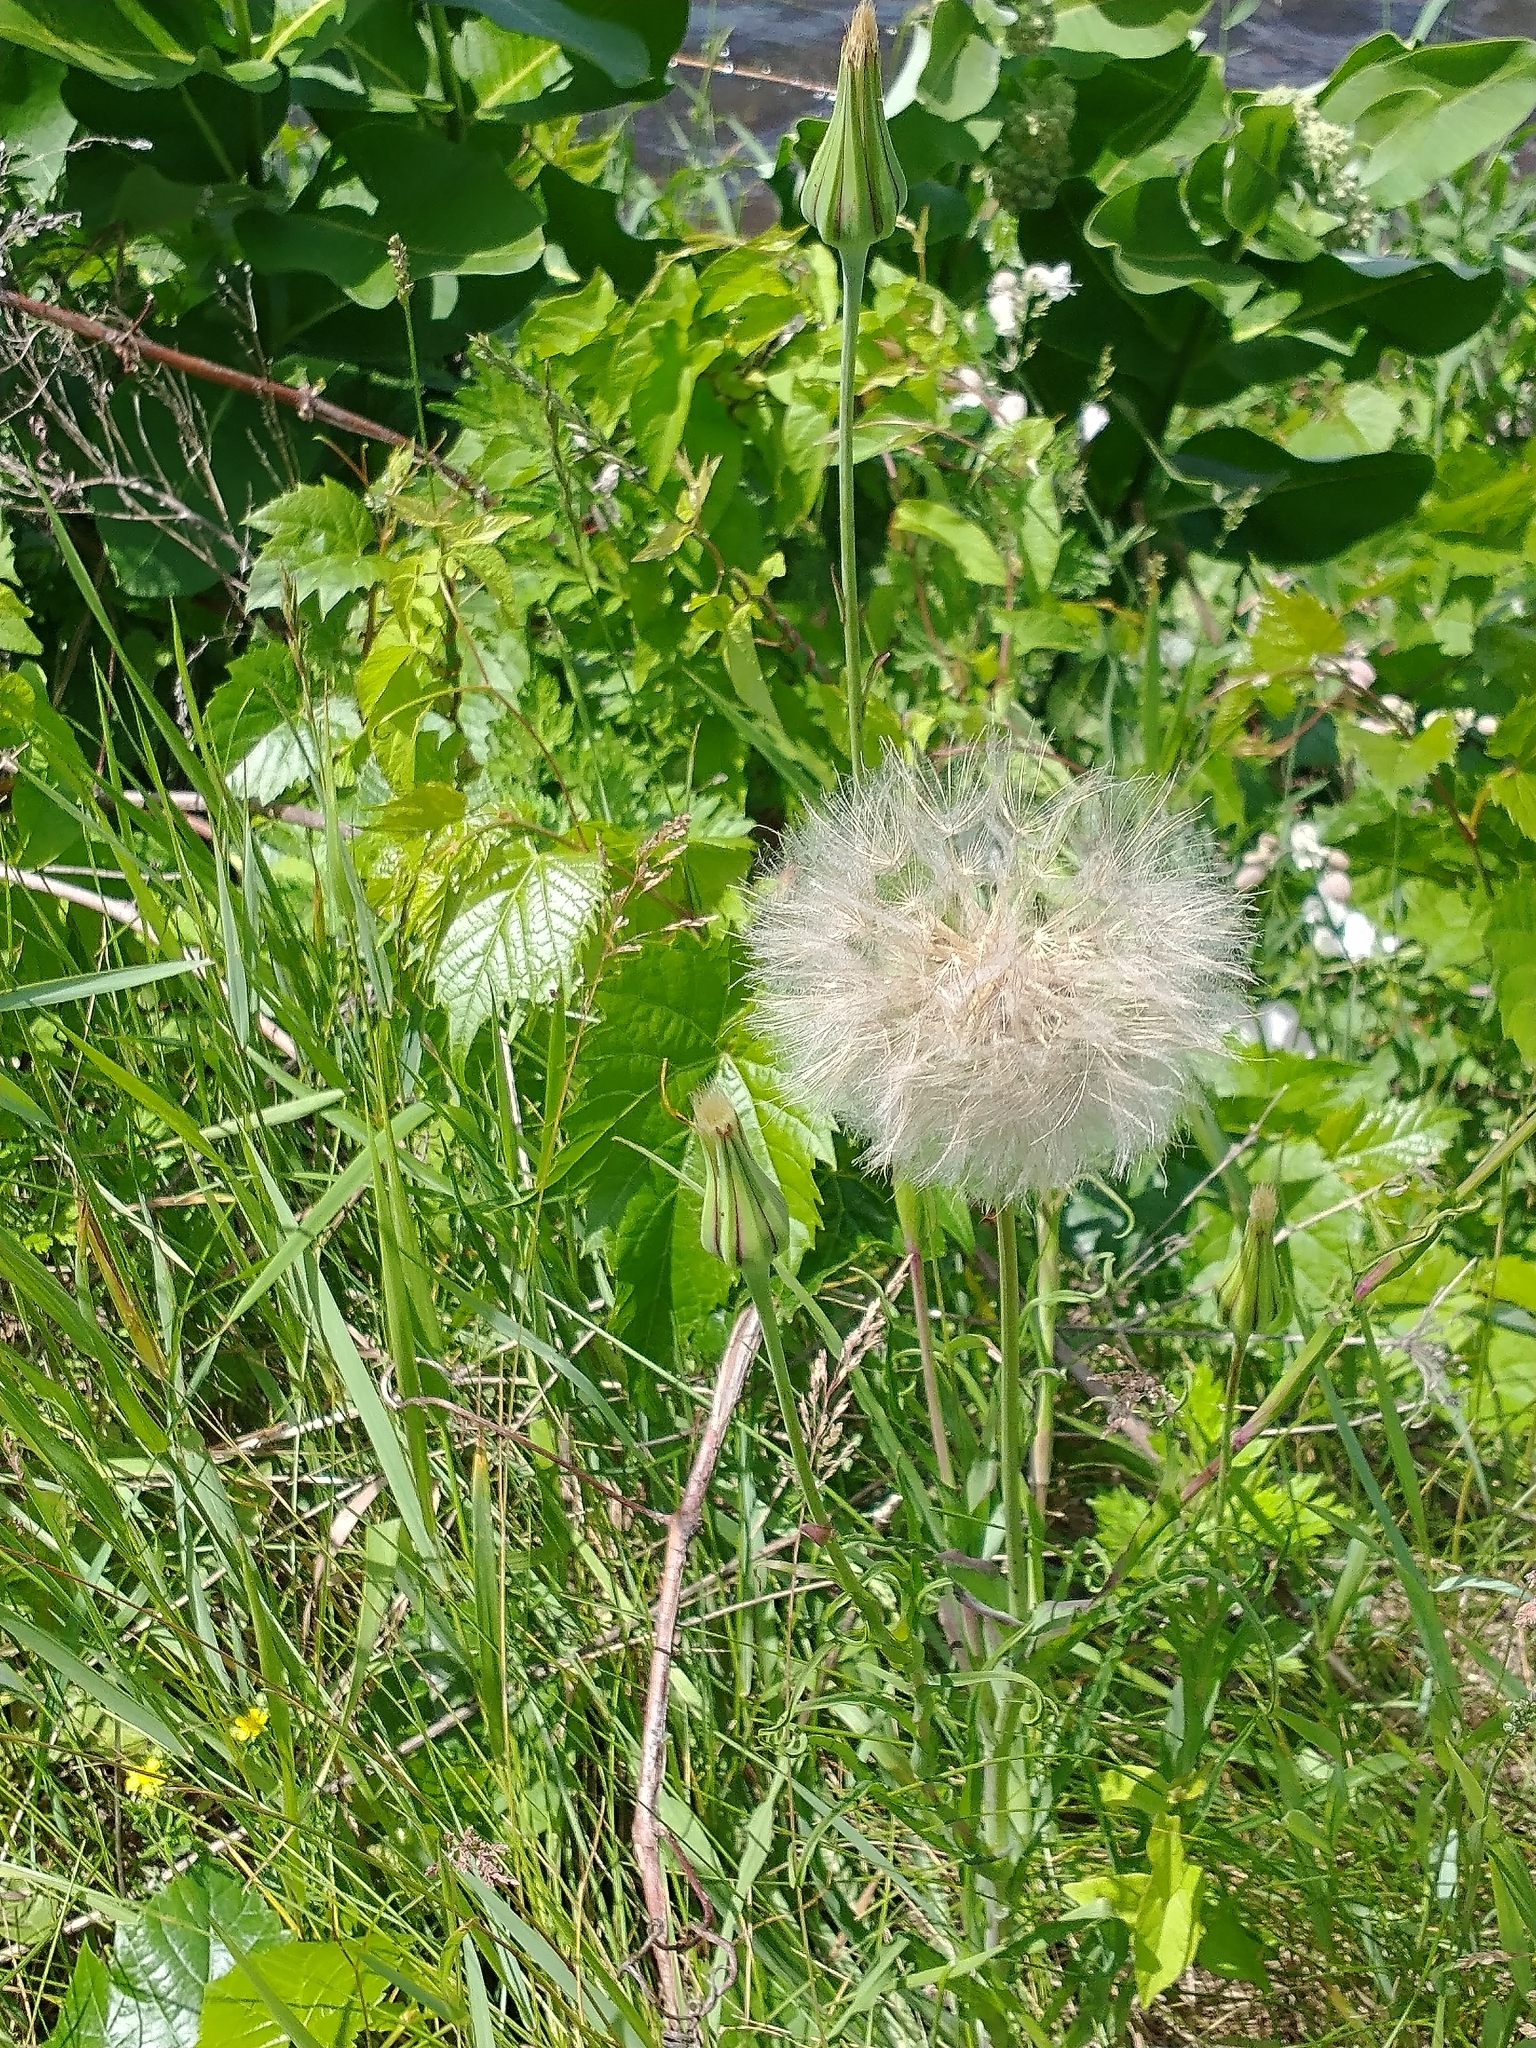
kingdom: Plantae
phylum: Tracheophyta
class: Magnoliopsida
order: Asterales
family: Asteraceae
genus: Tragopogon
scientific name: Tragopogon pratensis
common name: Goat's-beard
